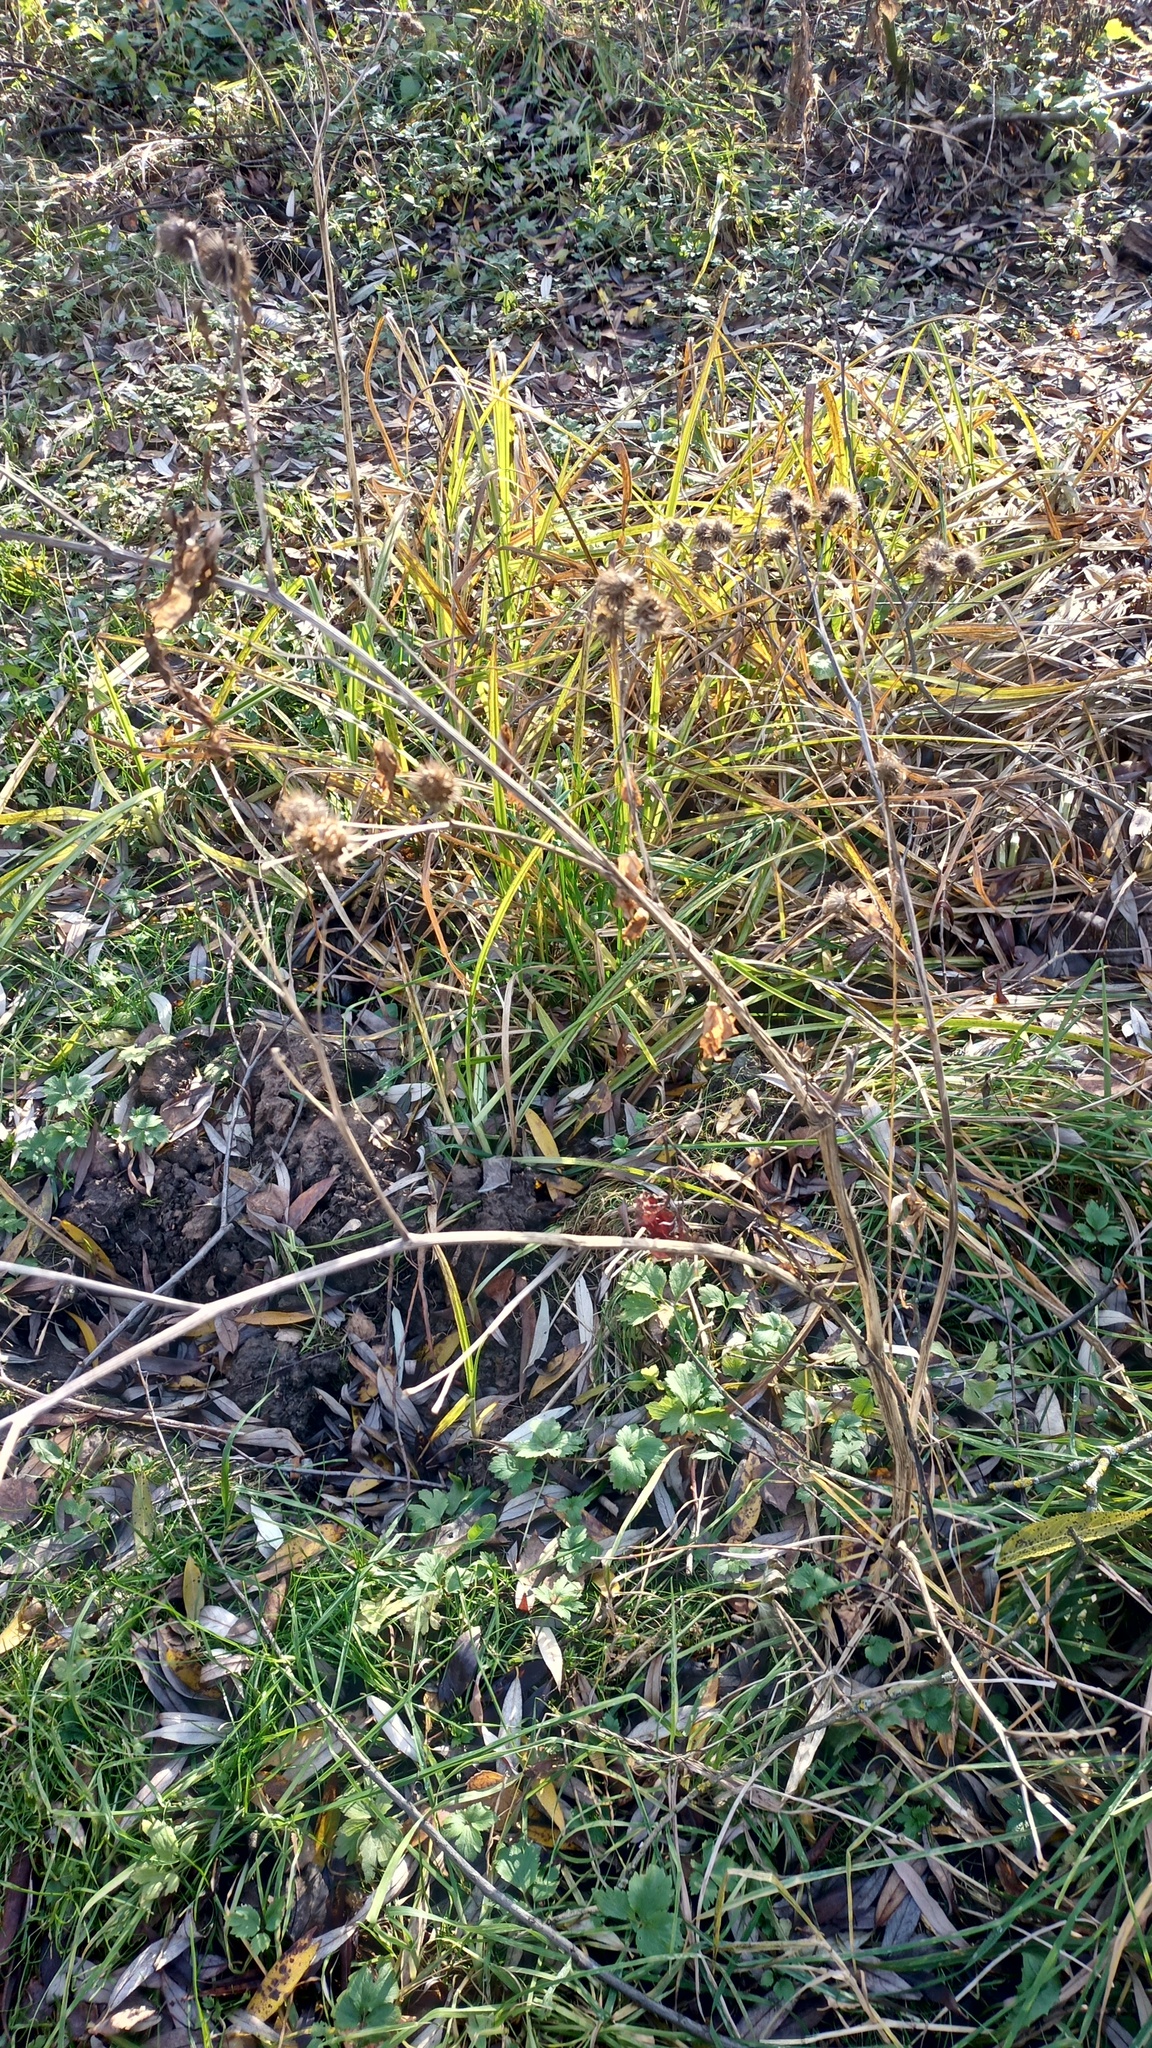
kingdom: Plantae
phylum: Tracheophyta
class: Magnoliopsida
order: Asterales
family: Asteraceae
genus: Arctium
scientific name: Arctium tomentosum
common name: Woolly burdock
